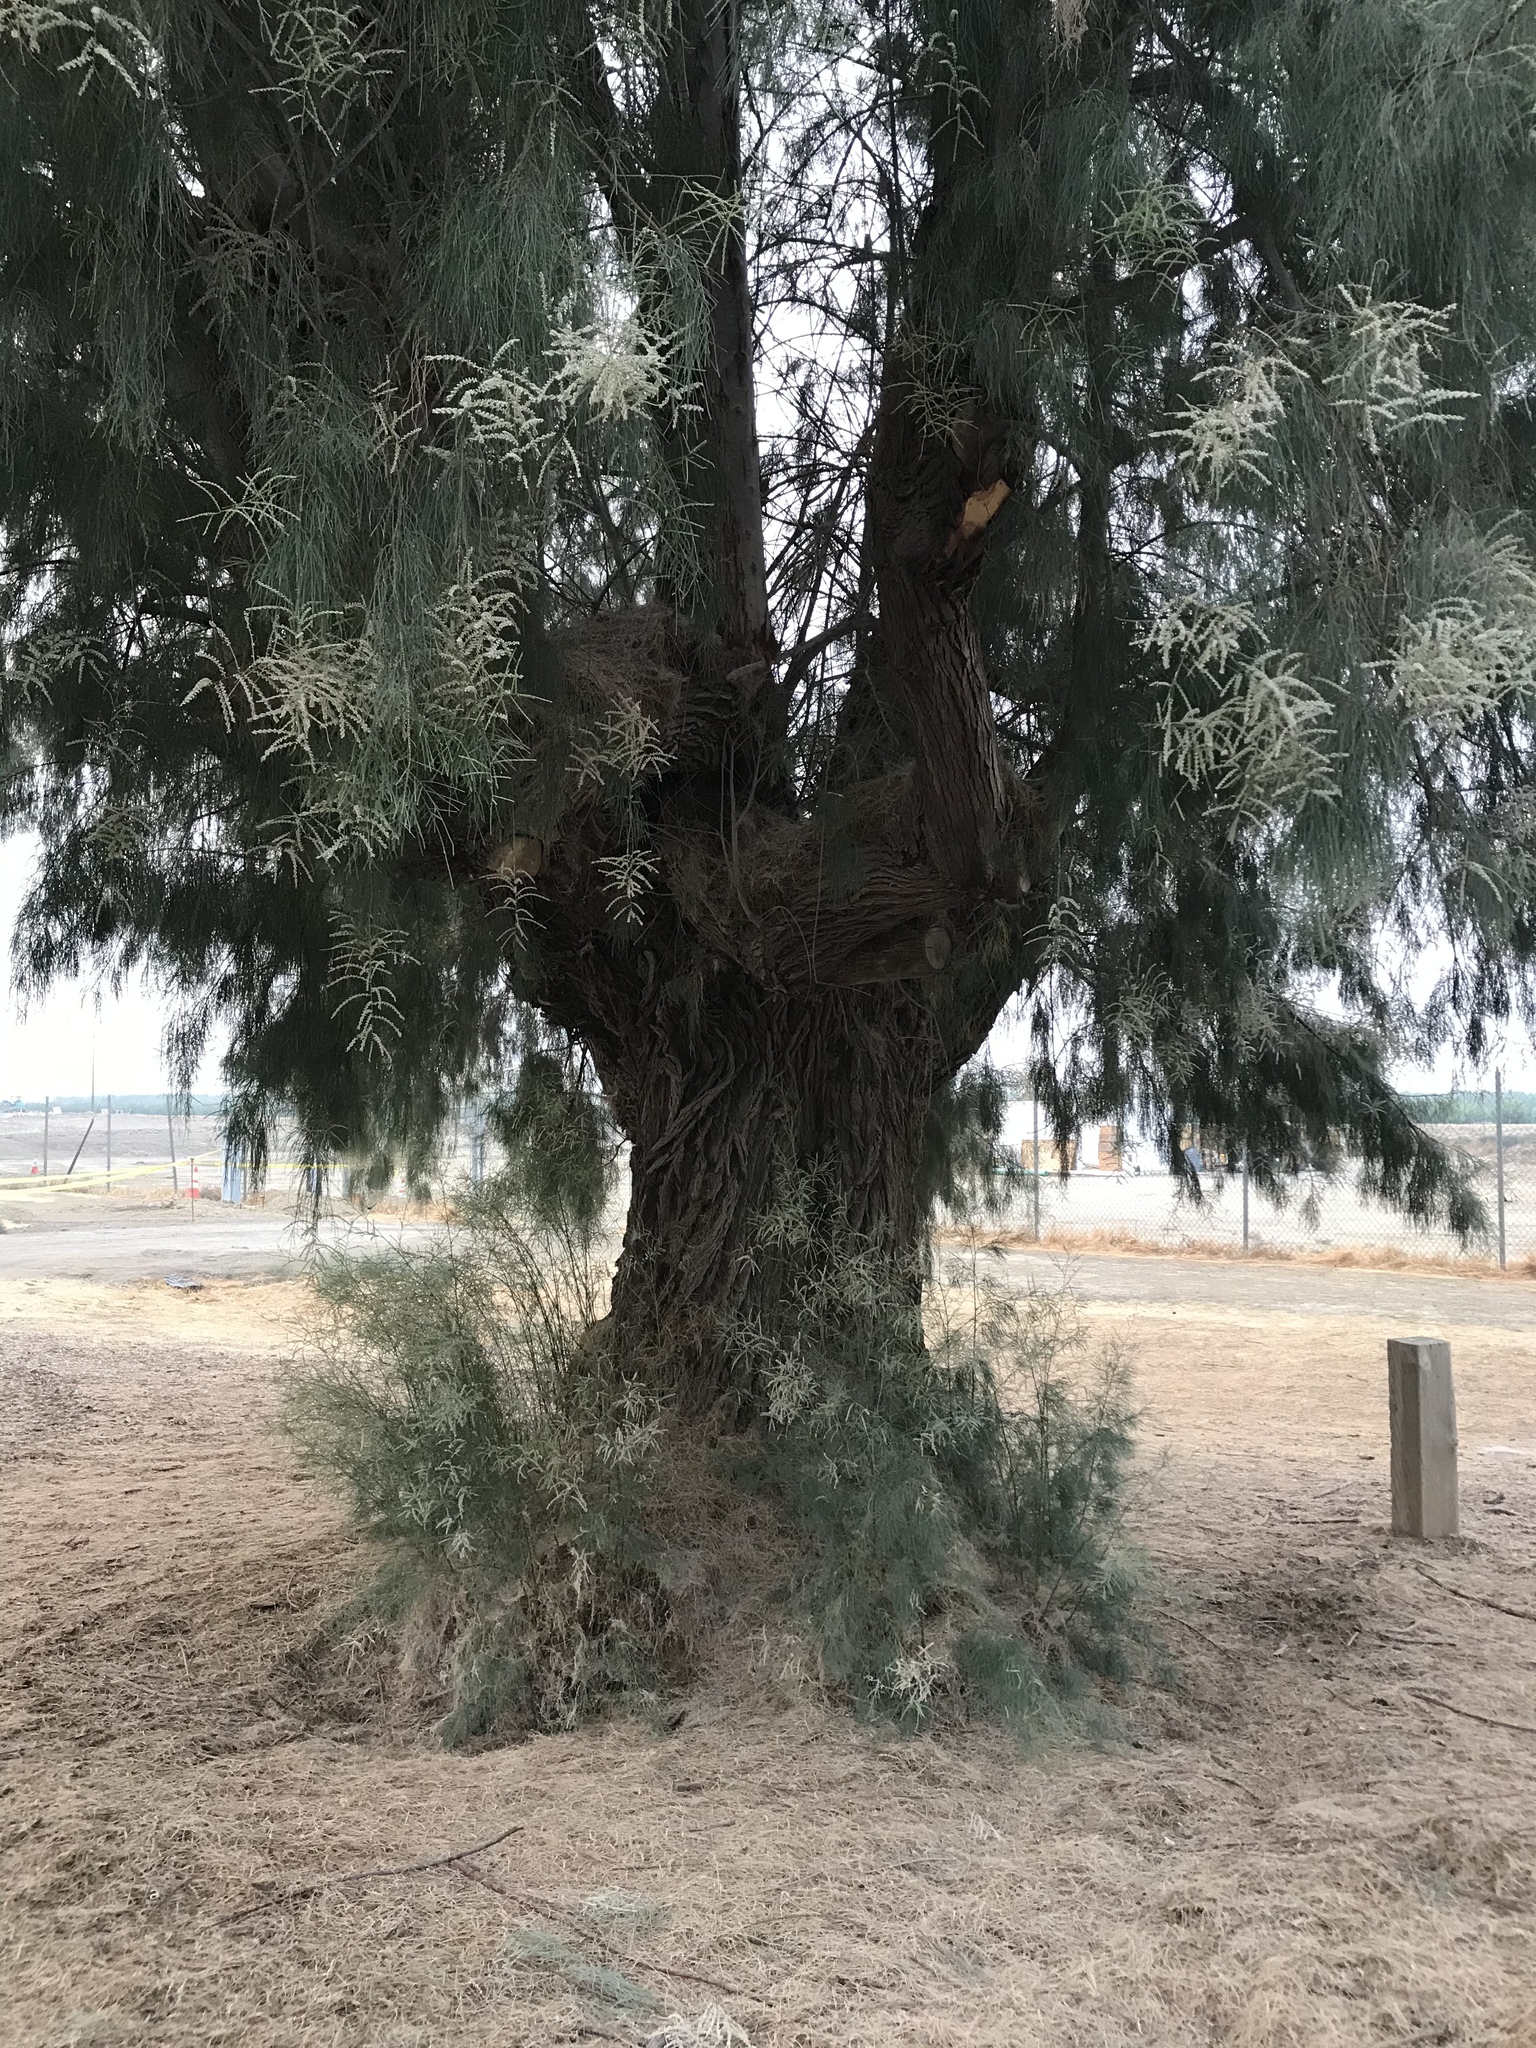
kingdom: Plantae
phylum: Tracheophyta
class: Magnoliopsida
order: Caryophyllales
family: Tamaricaceae
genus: Tamarix
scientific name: Tamarix aphylla
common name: Athel tamarisk
